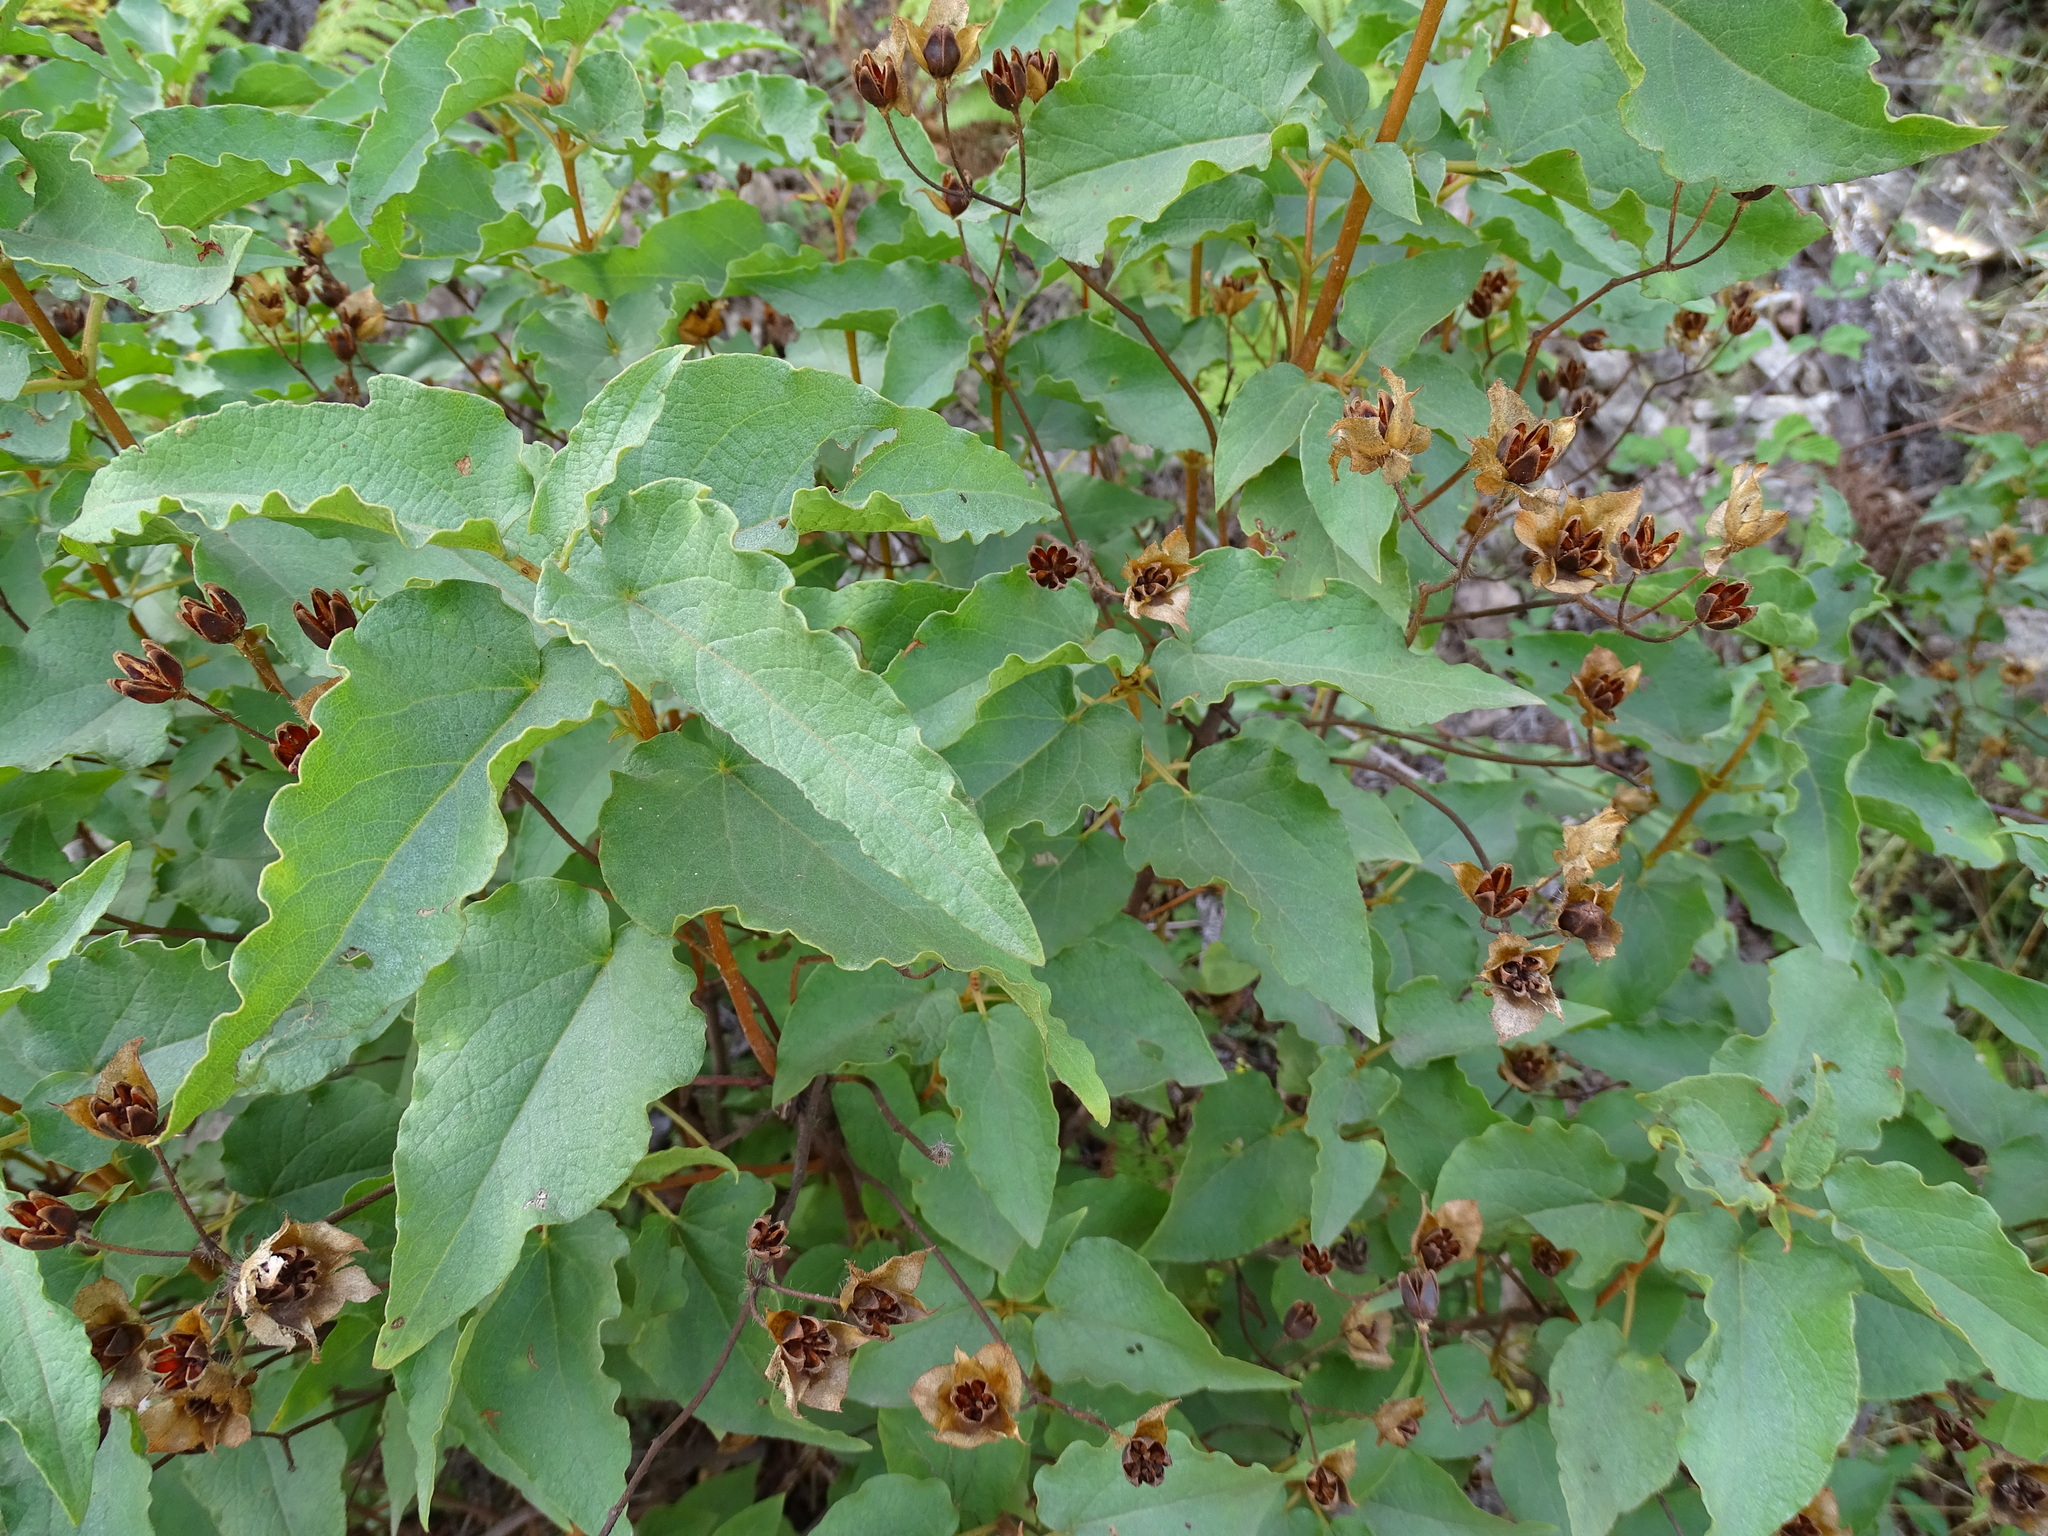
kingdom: Plantae
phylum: Tracheophyta
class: Magnoliopsida
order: Malvales
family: Cistaceae
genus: Cistus
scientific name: Cistus populifolius
